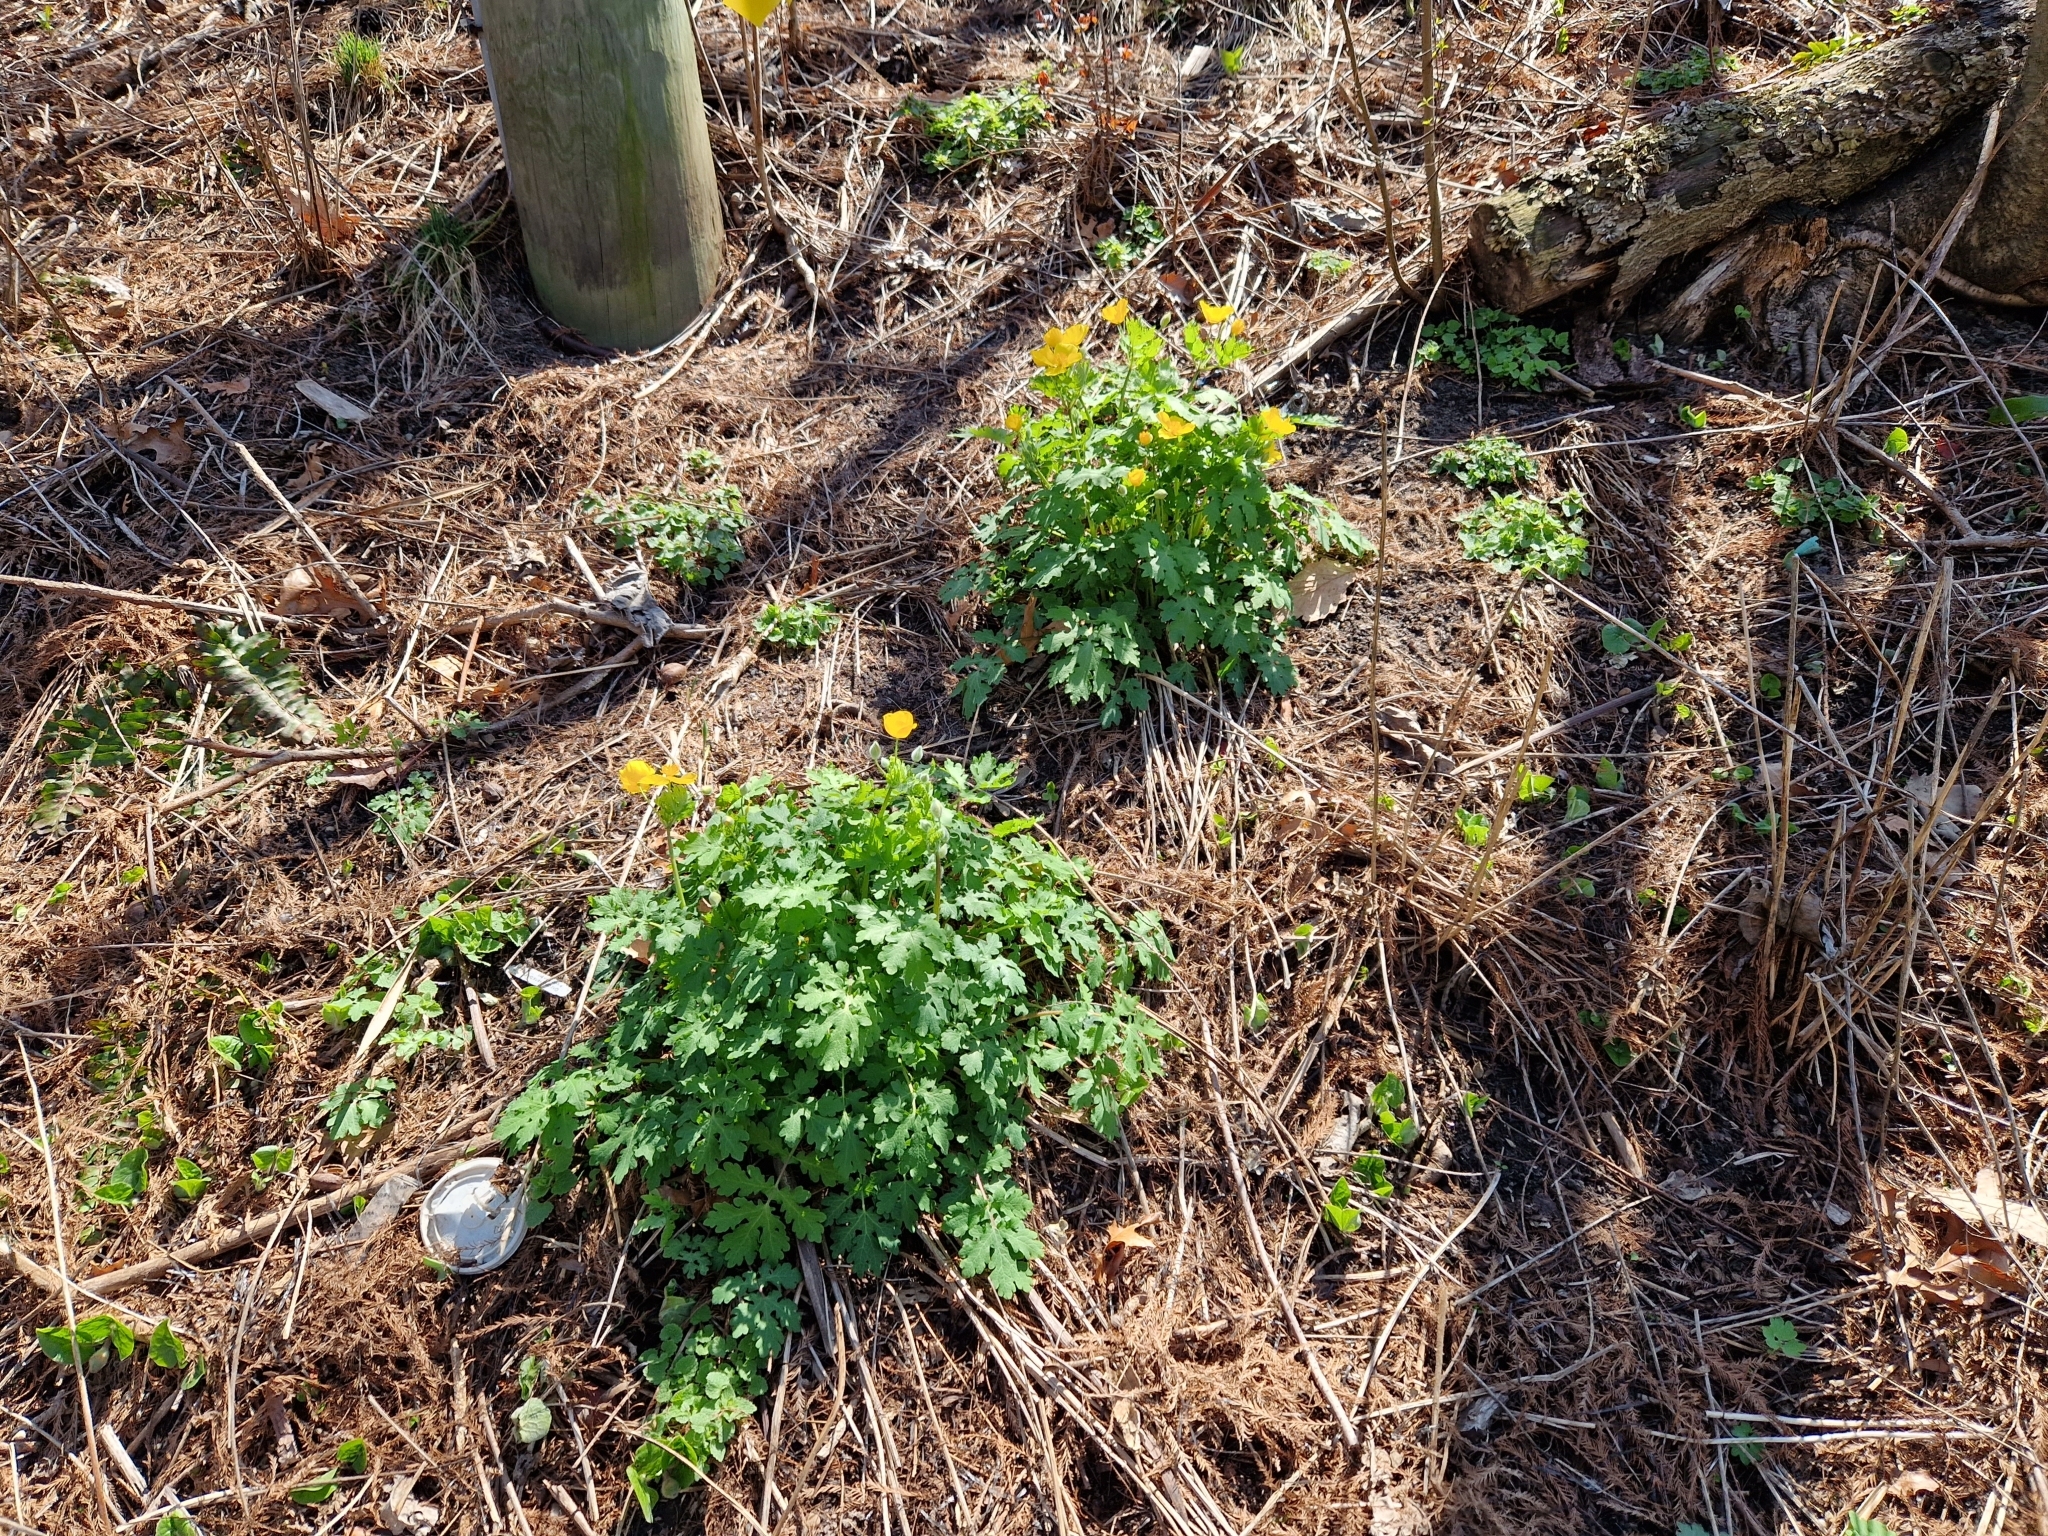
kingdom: Plantae
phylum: Tracheophyta
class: Magnoliopsida
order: Ranunculales
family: Papaveraceae
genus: Stylophorum
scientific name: Stylophorum diphyllum
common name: Celandine poppy
